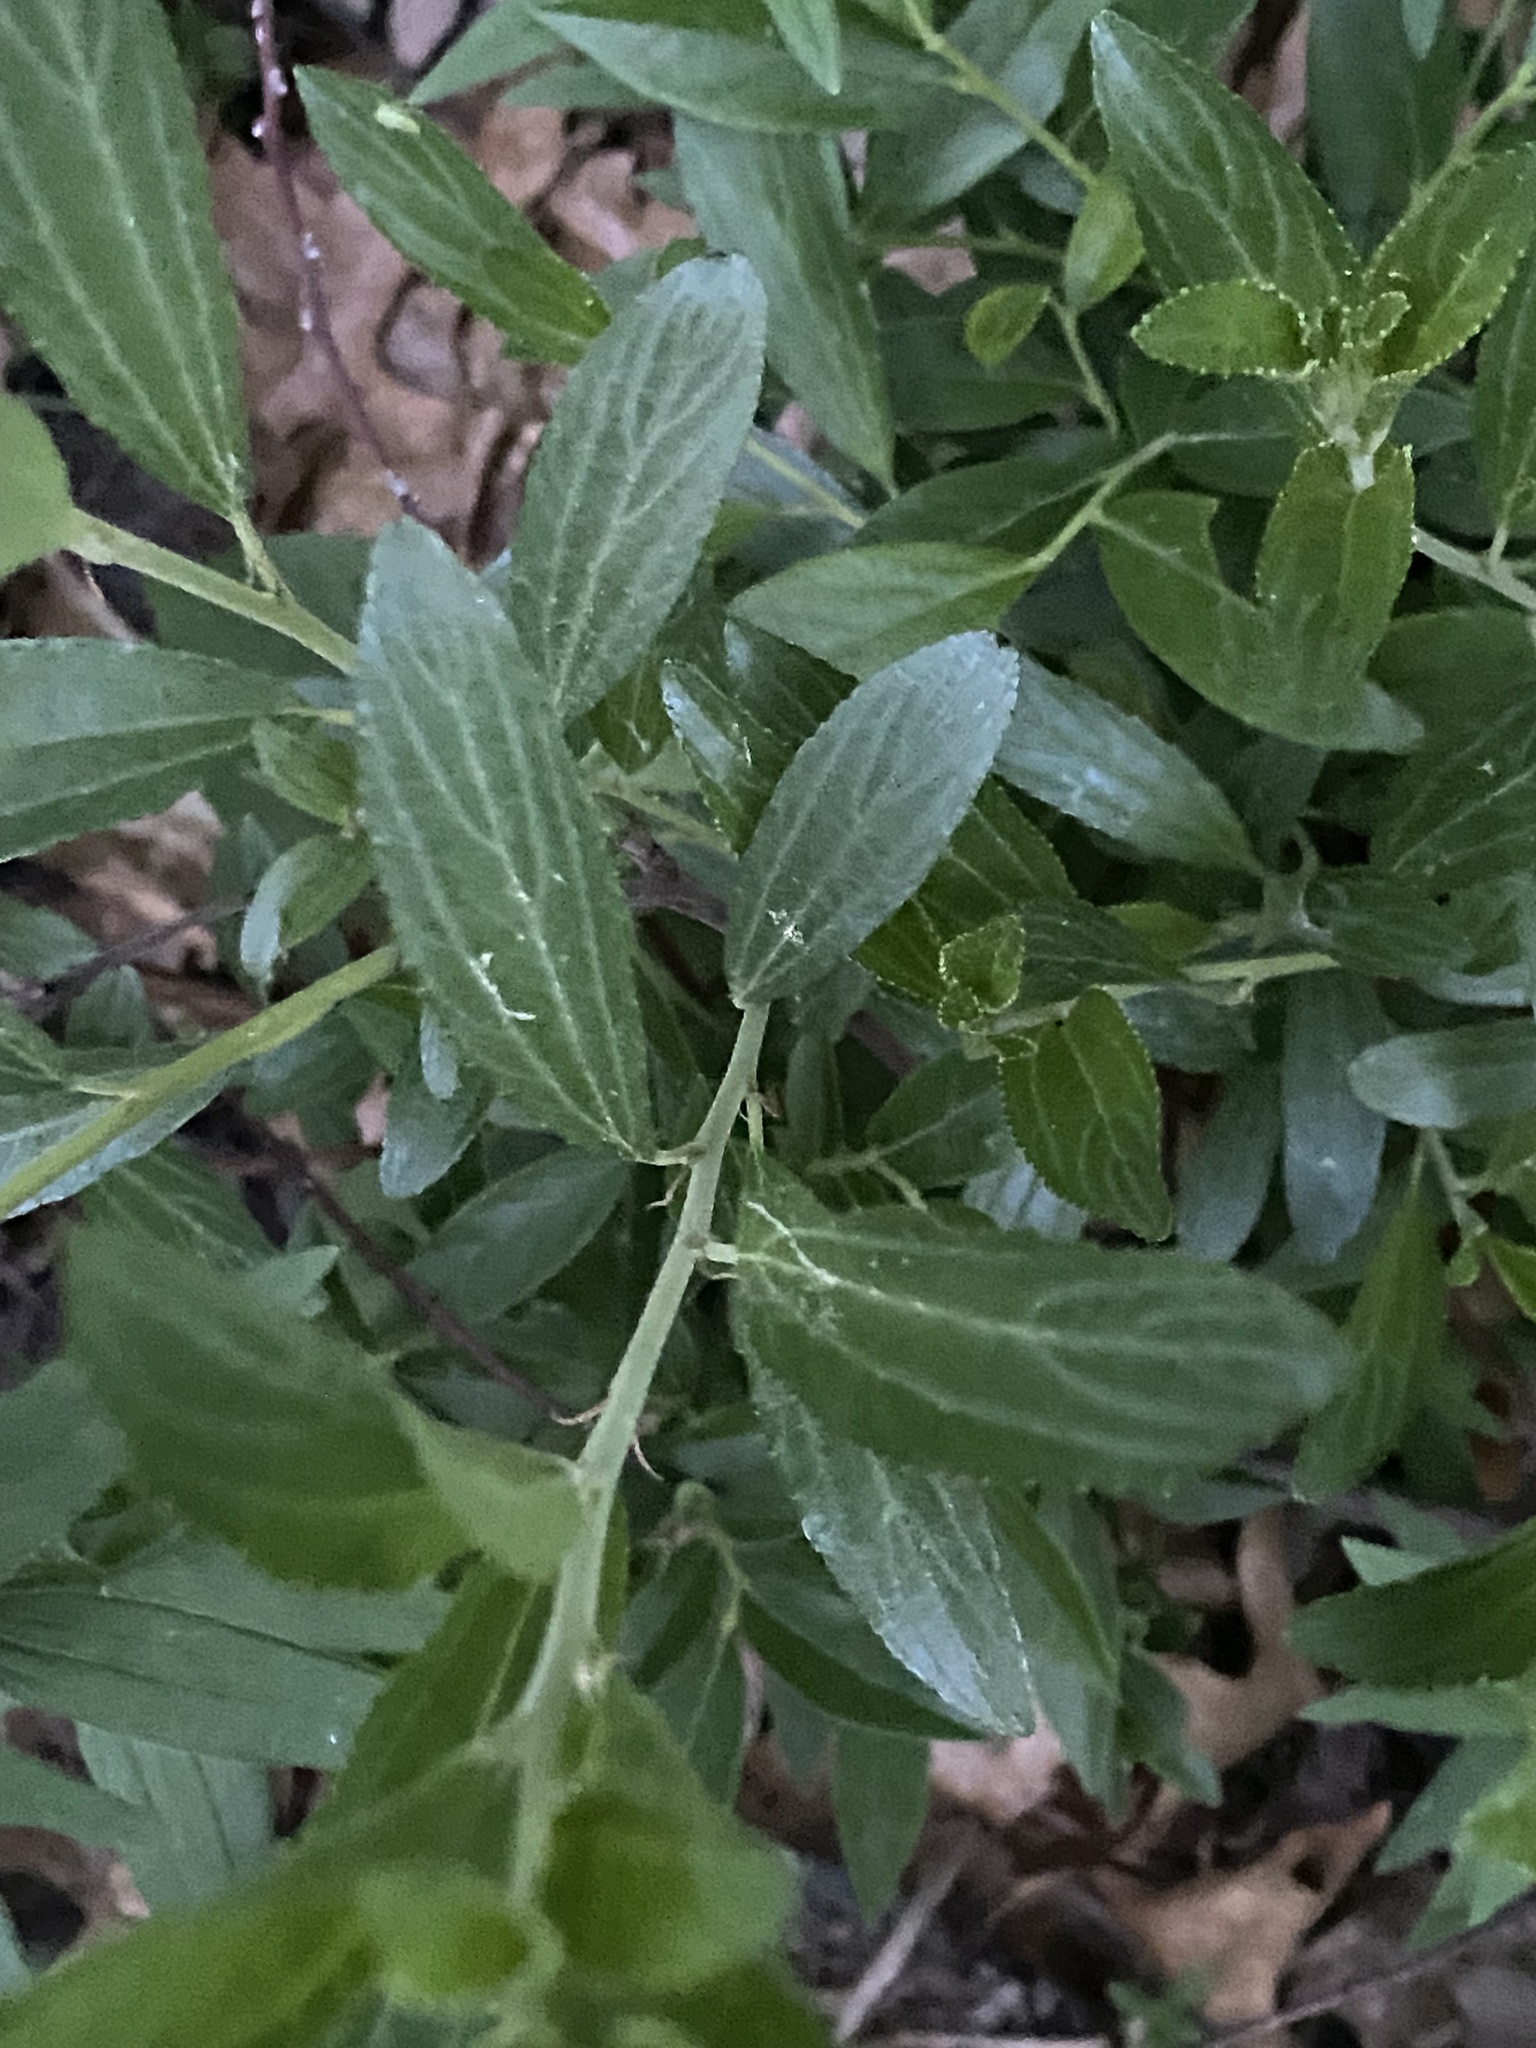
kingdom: Plantae
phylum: Tracheophyta
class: Magnoliopsida
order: Rosales
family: Rhamnaceae
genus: Ceanothus
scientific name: Ceanothus herbaceus
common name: Inland ceanothus
